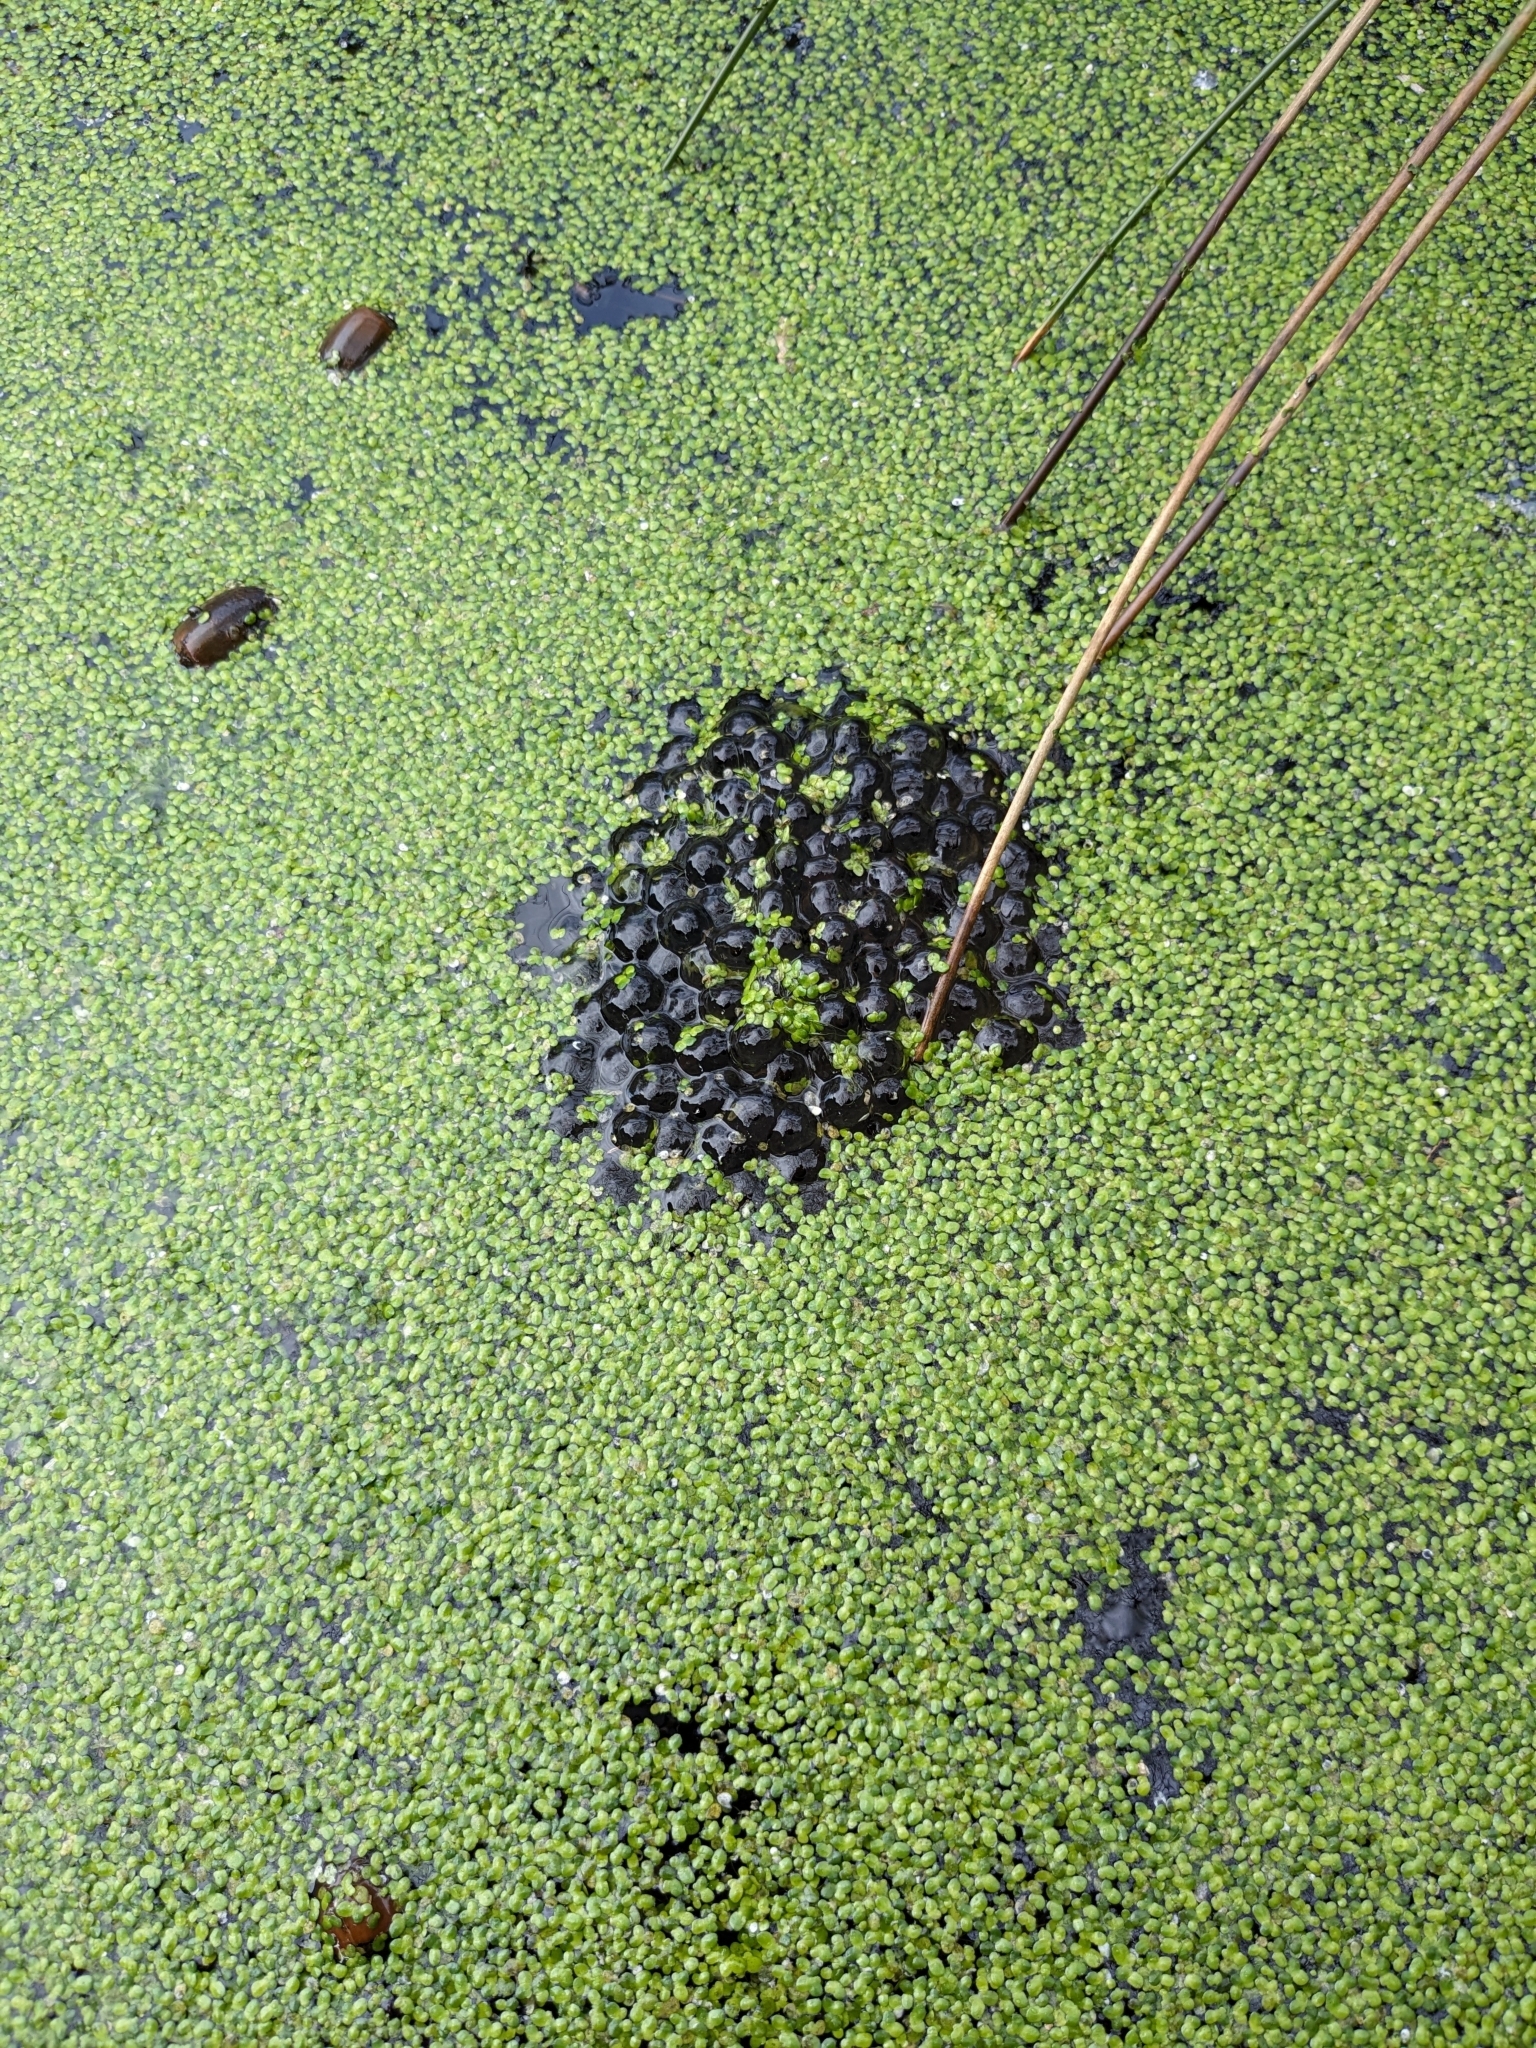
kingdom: Animalia
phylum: Chordata
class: Amphibia
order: Anura
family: Ranidae
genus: Rana
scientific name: Rana temporaria
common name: Common frog
